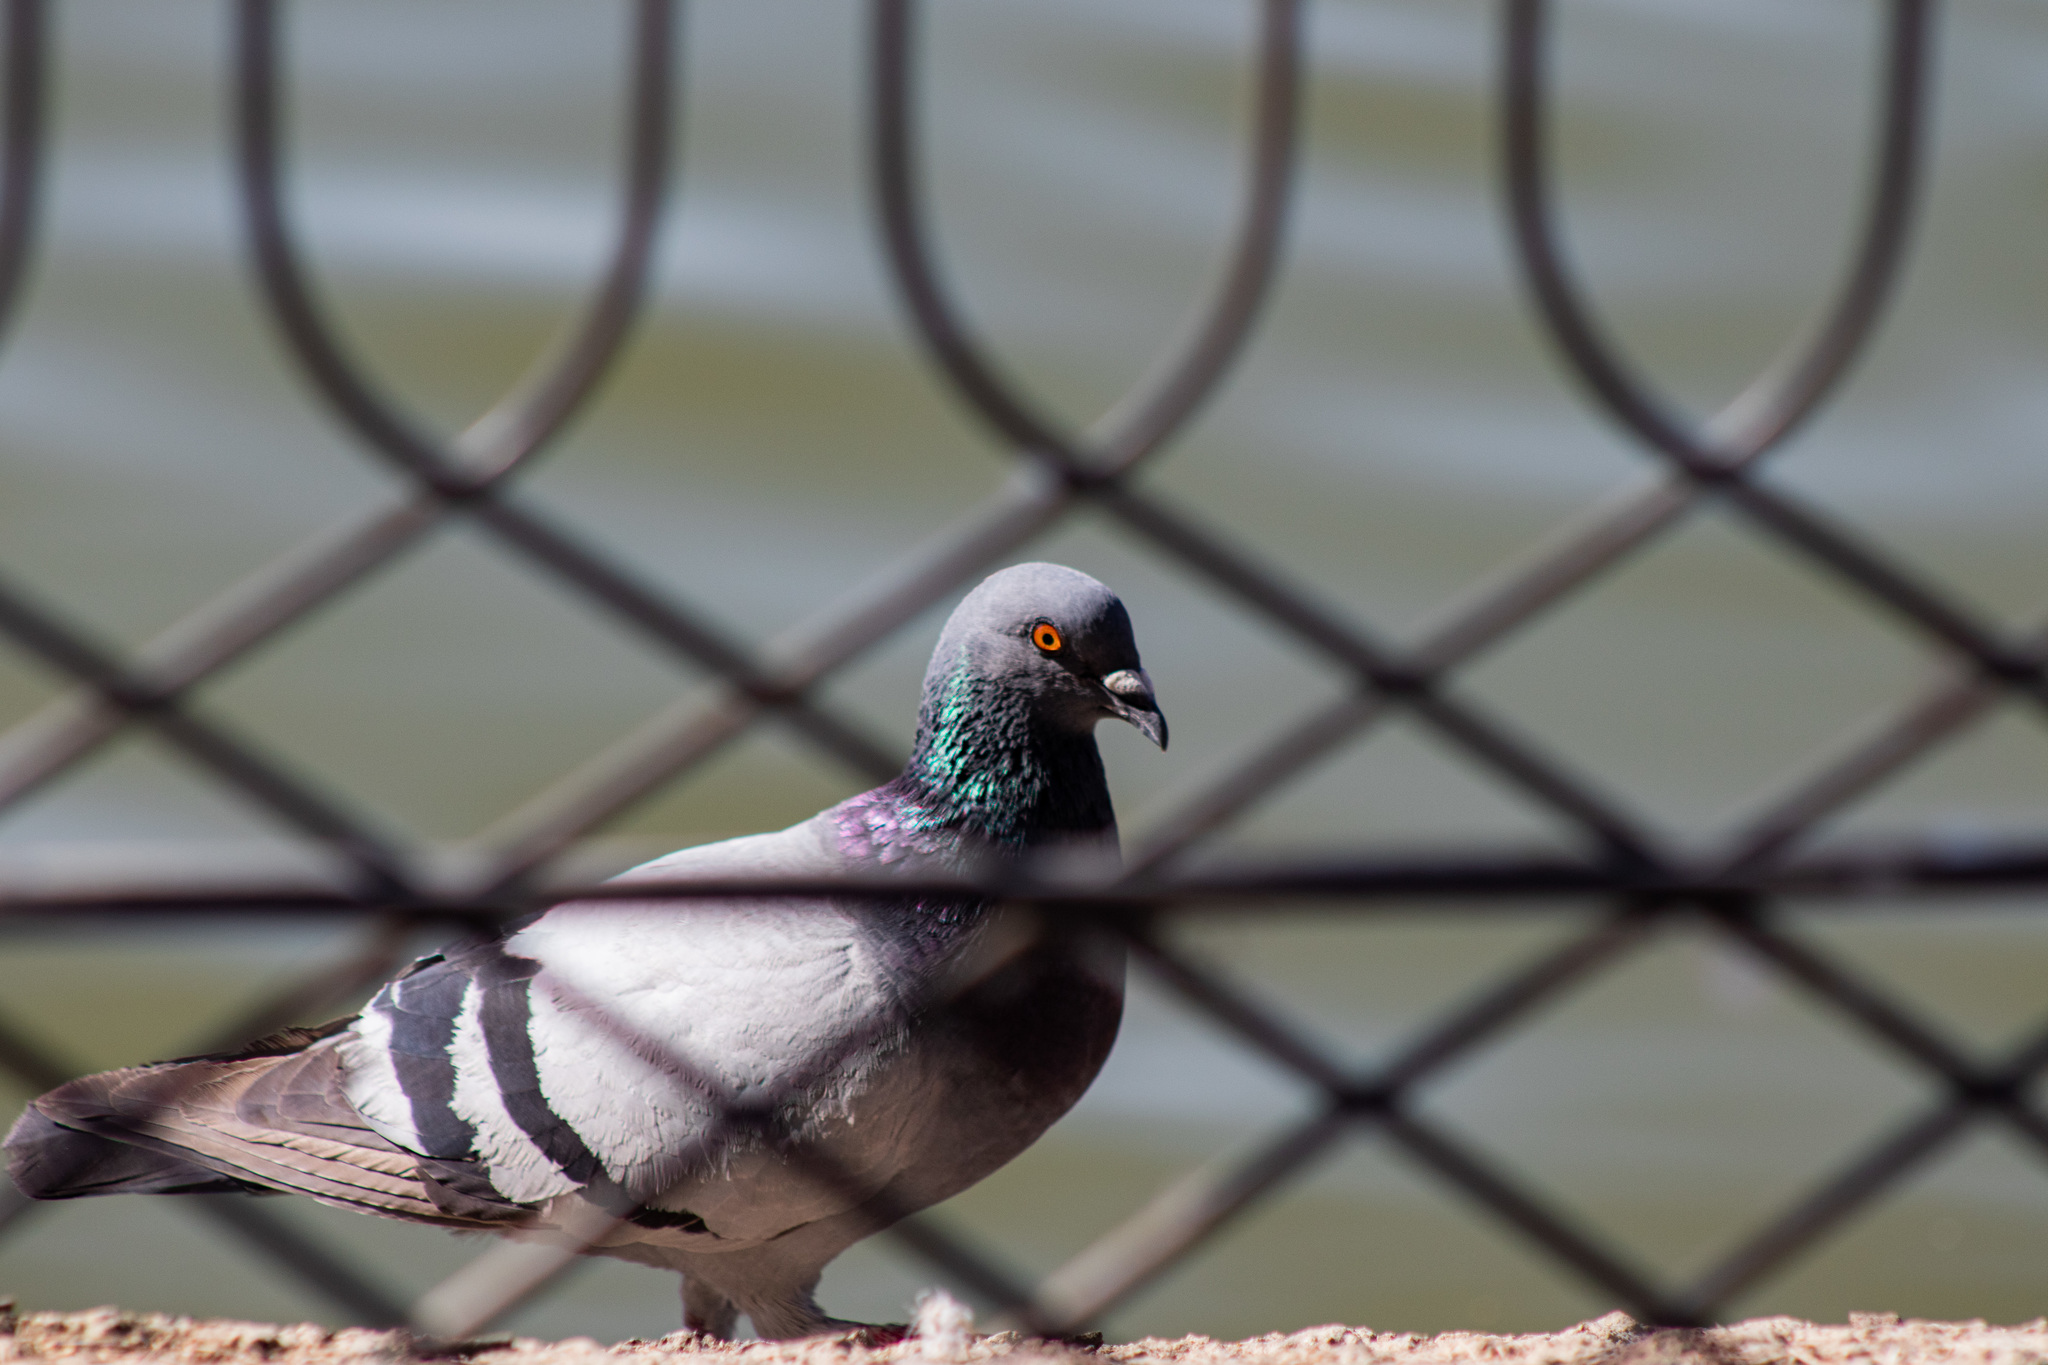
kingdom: Animalia
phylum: Chordata
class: Aves
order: Columbiformes
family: Columbidae
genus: Columba
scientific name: Columba livia
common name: Rock pigeon
